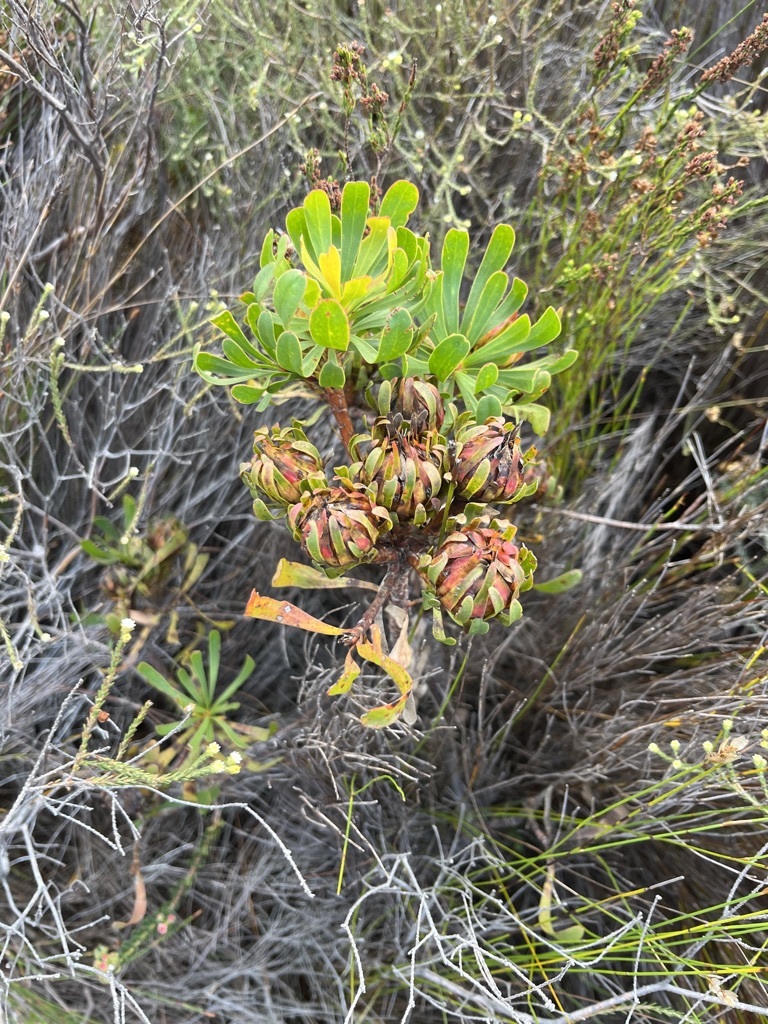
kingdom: Plantae
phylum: Tracheophyta
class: Magnoliopsida
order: Proteales
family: Proteaceae
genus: Aulax
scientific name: Aulax umbellata
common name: Broad-leaf featherbush
